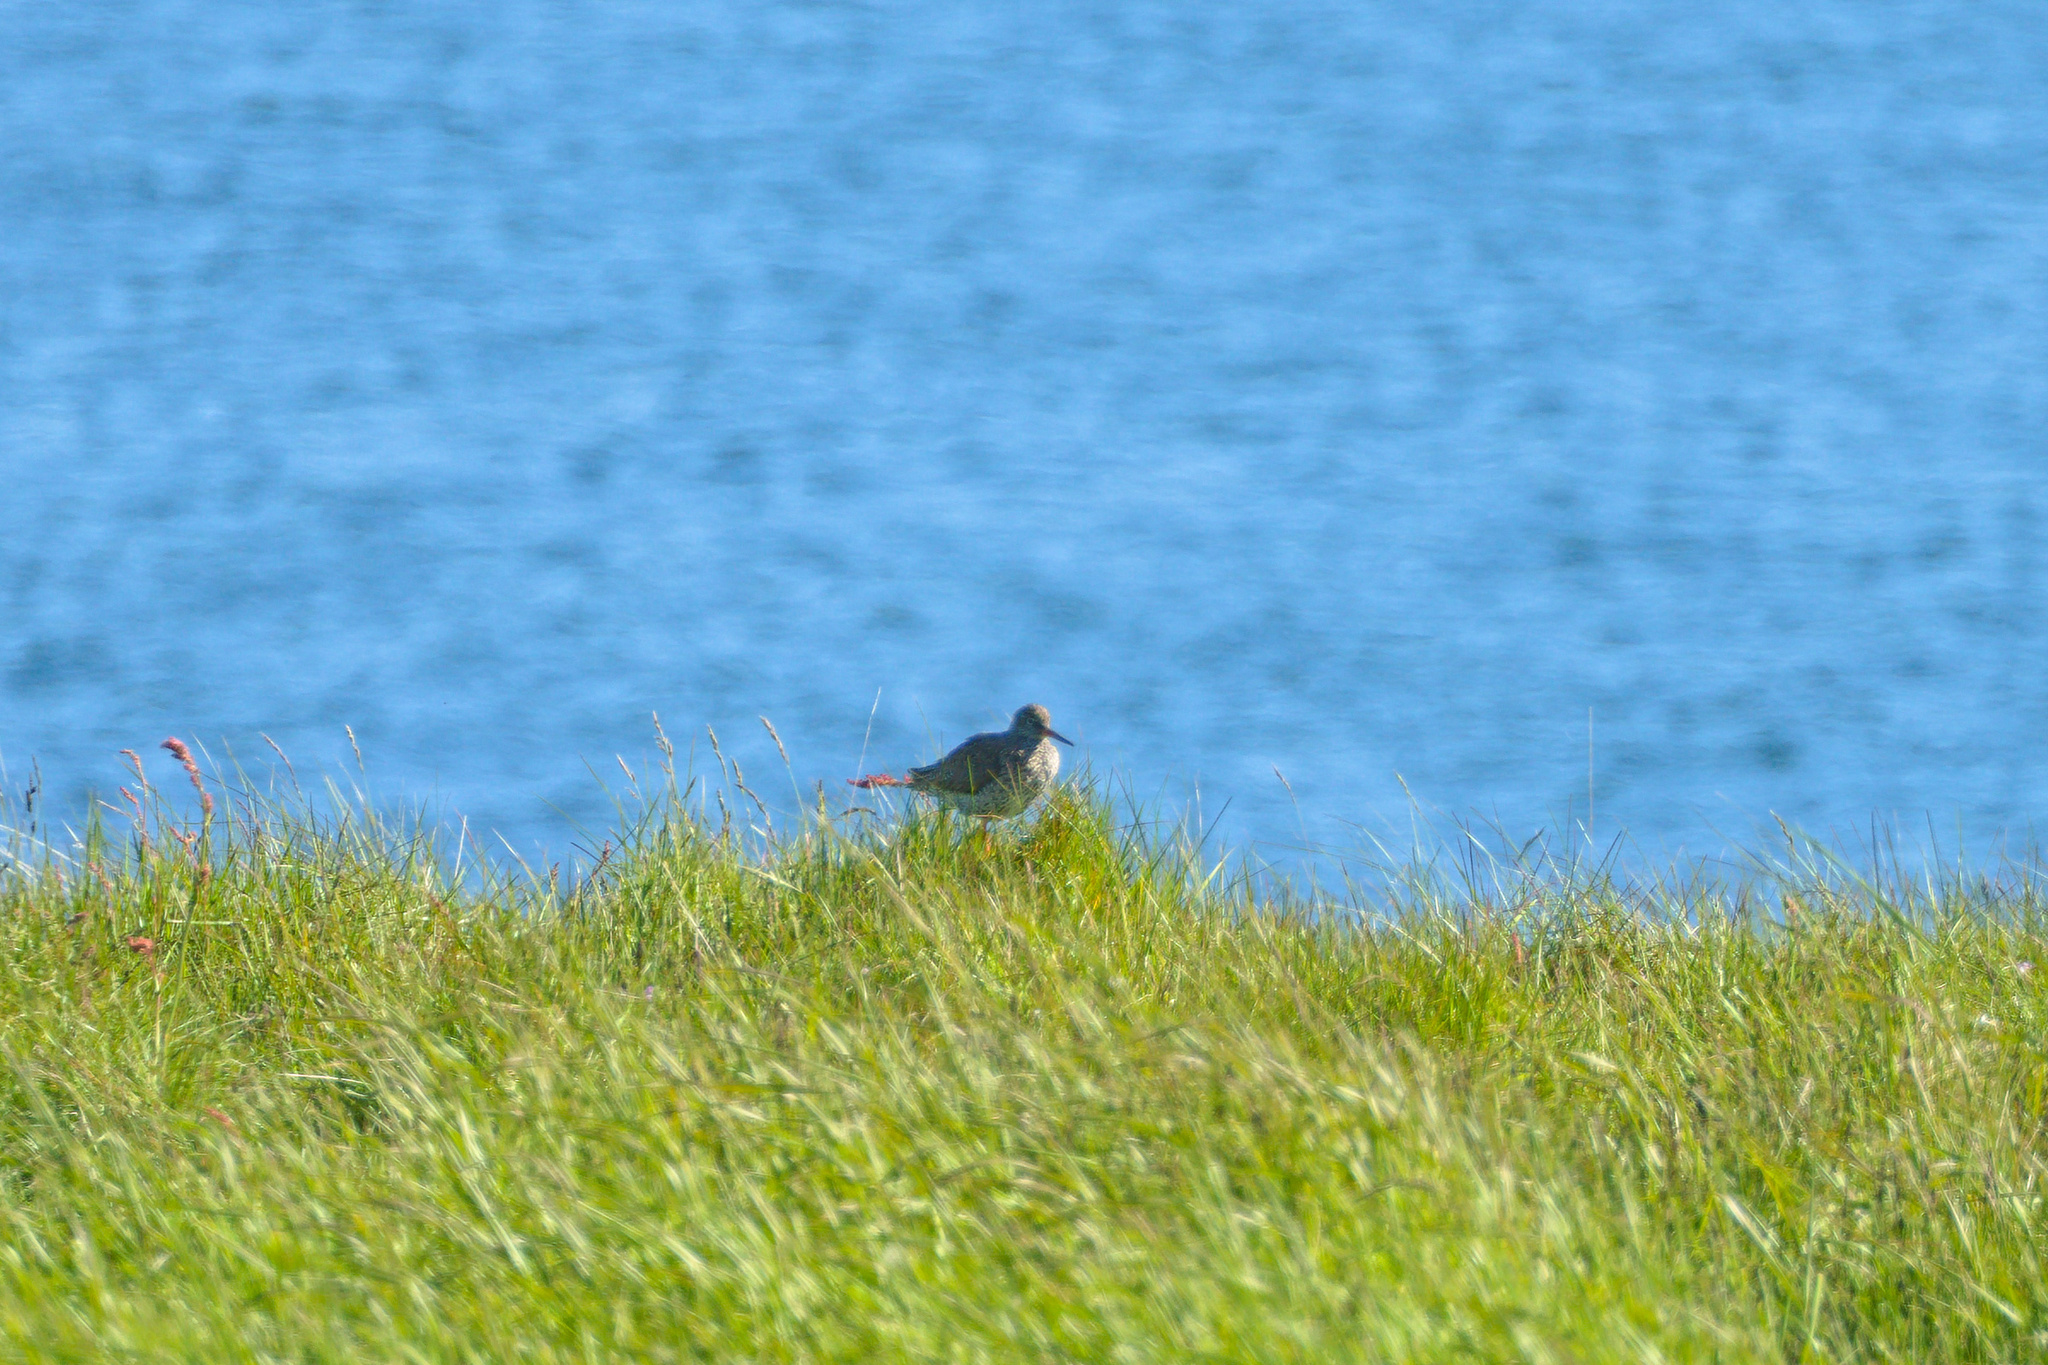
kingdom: Animalia
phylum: Chordata
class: Aves
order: Charadriiformes
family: Scolopacidae
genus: Tringa
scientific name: Tringa totanus
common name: Common redshank
